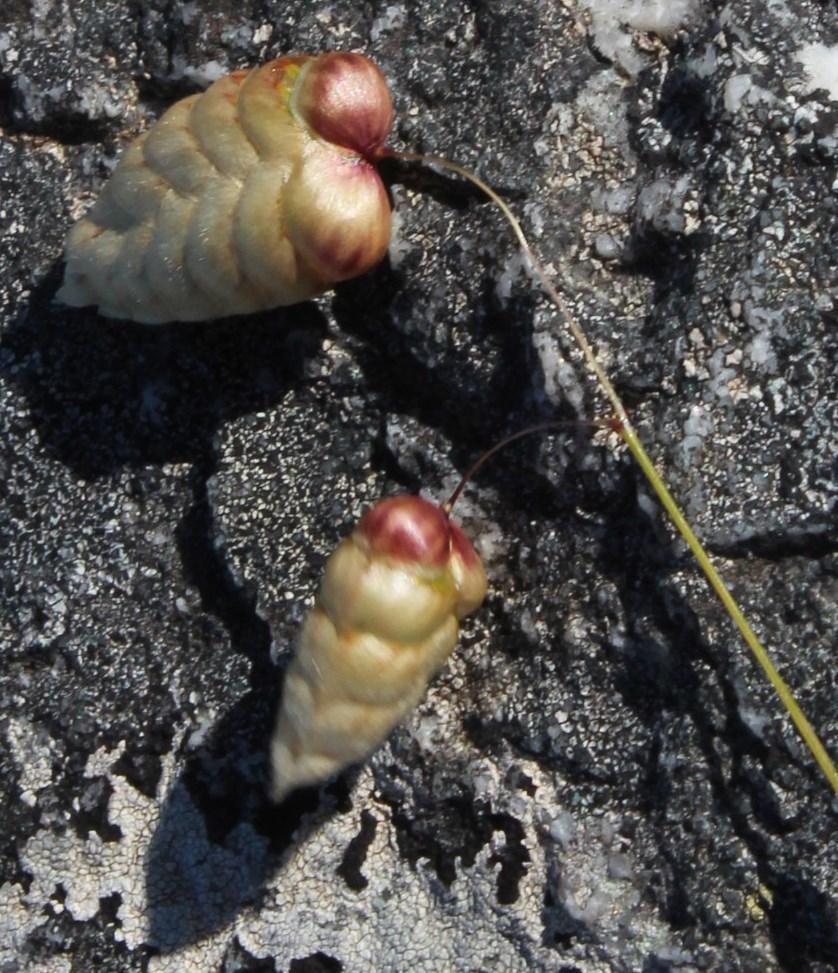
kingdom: Plantae
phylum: Tracheophyta
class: Liliopsida
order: Poales
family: Poaceae
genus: Briza
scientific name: Briza maxima
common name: Big quakinggrass
